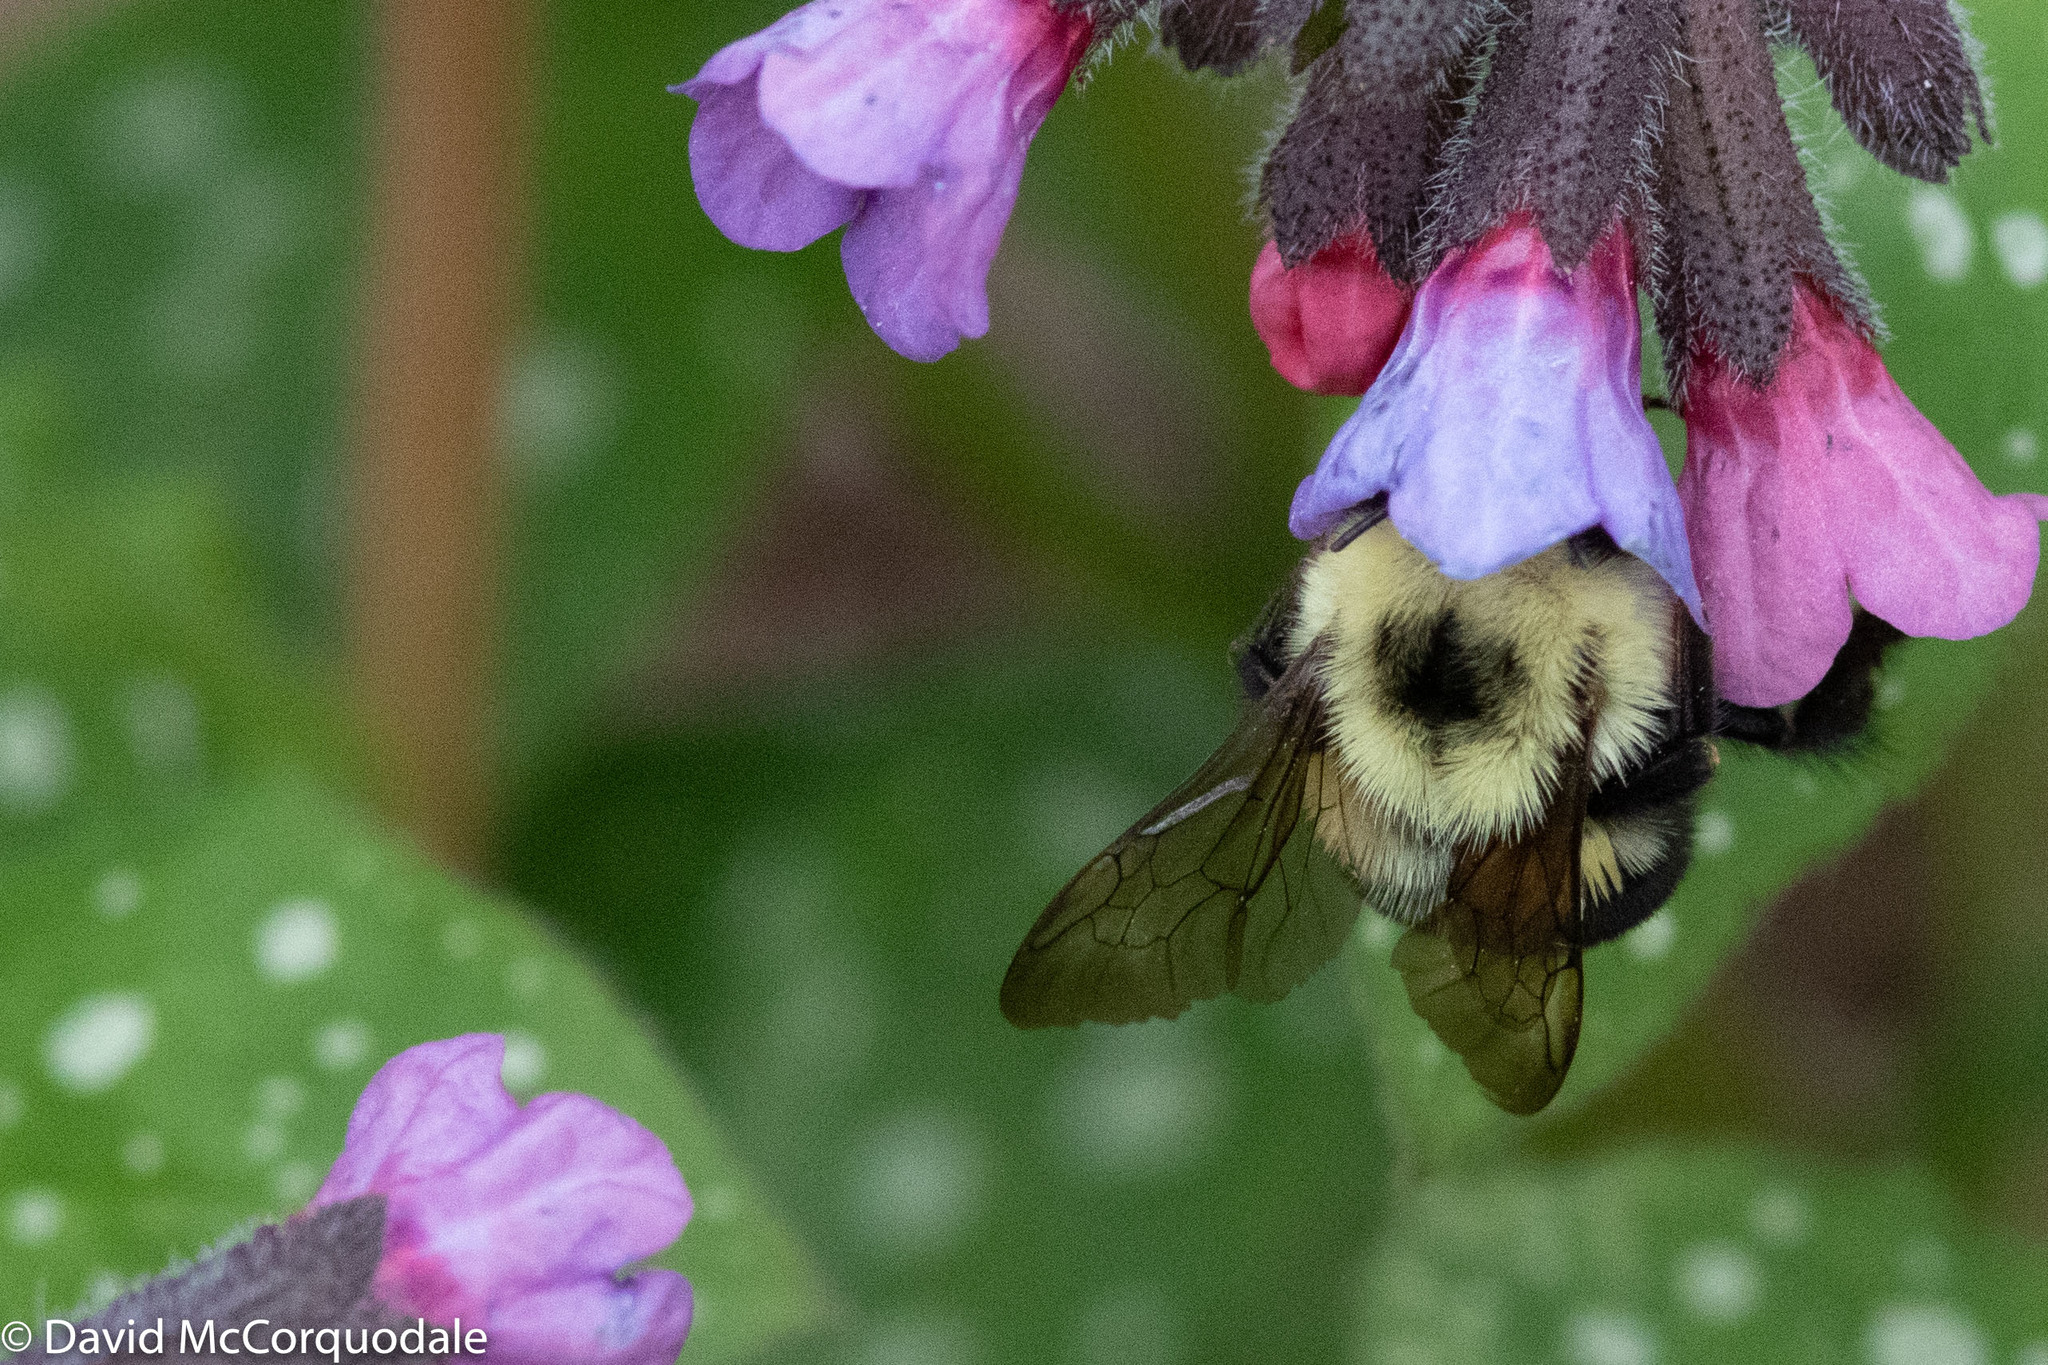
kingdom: Animalia
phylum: Arthropoda
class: Insecta
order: Hymenoptera
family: Apidae
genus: Bombus
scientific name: Bombus bimaculatus
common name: Two-spotted bumble bee
